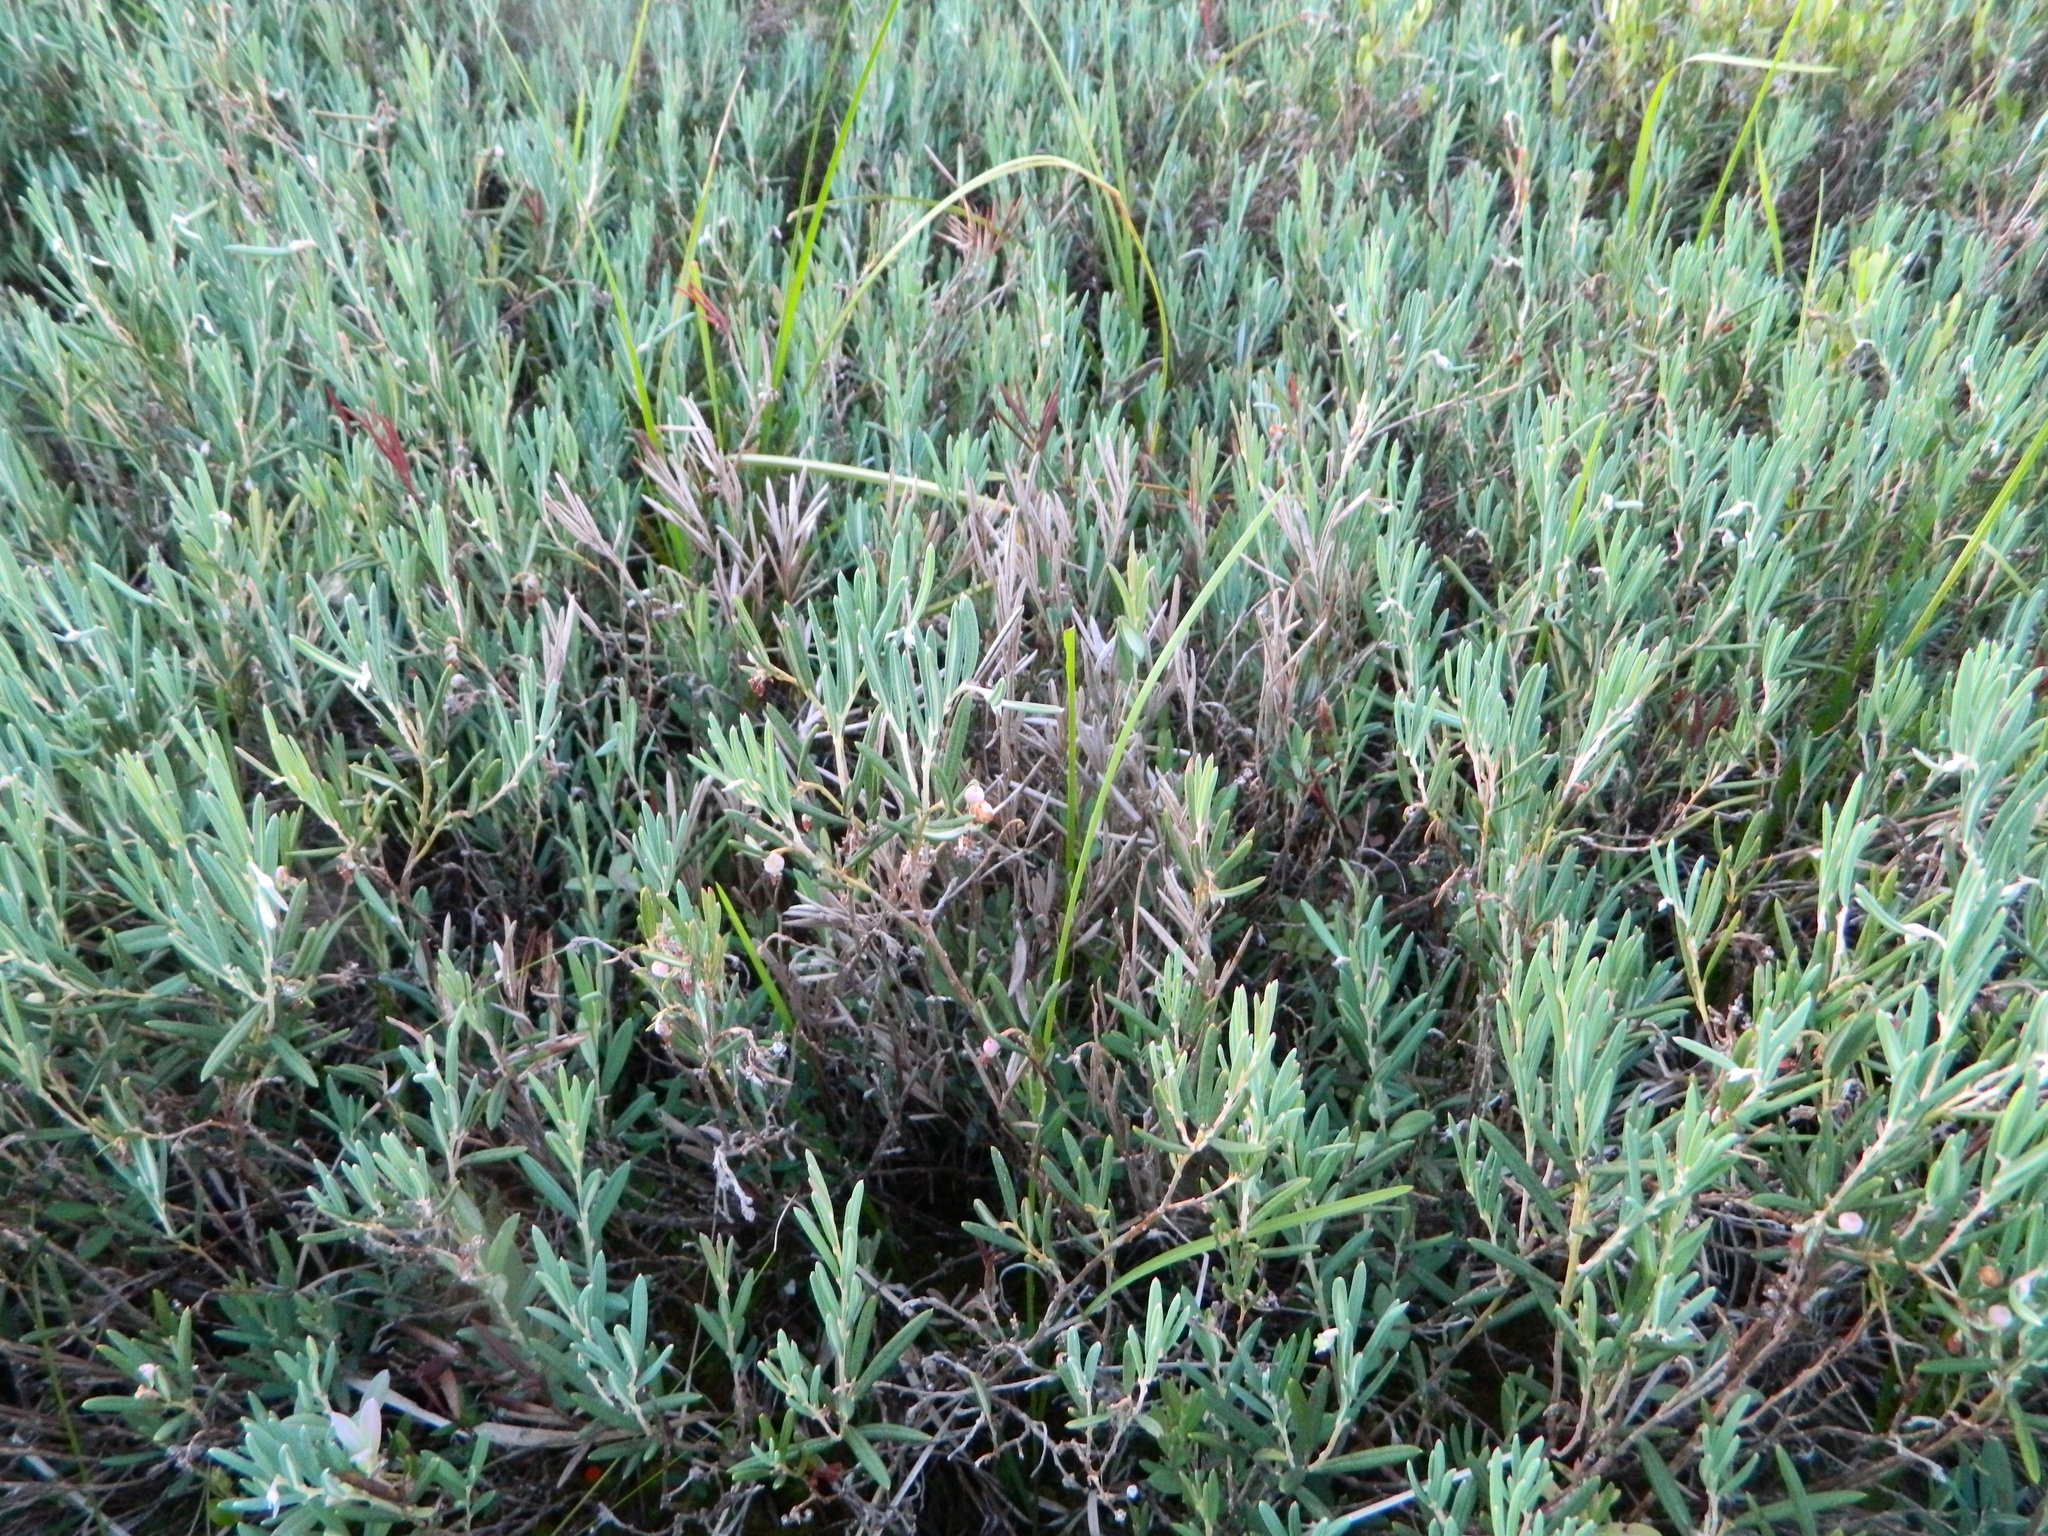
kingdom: Plantae
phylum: Tracheophyta
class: Magnoliopsida
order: Ericales
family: Ericaceae
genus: Andromeda
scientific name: Andromeda polifolia
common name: Bog-rosemary
